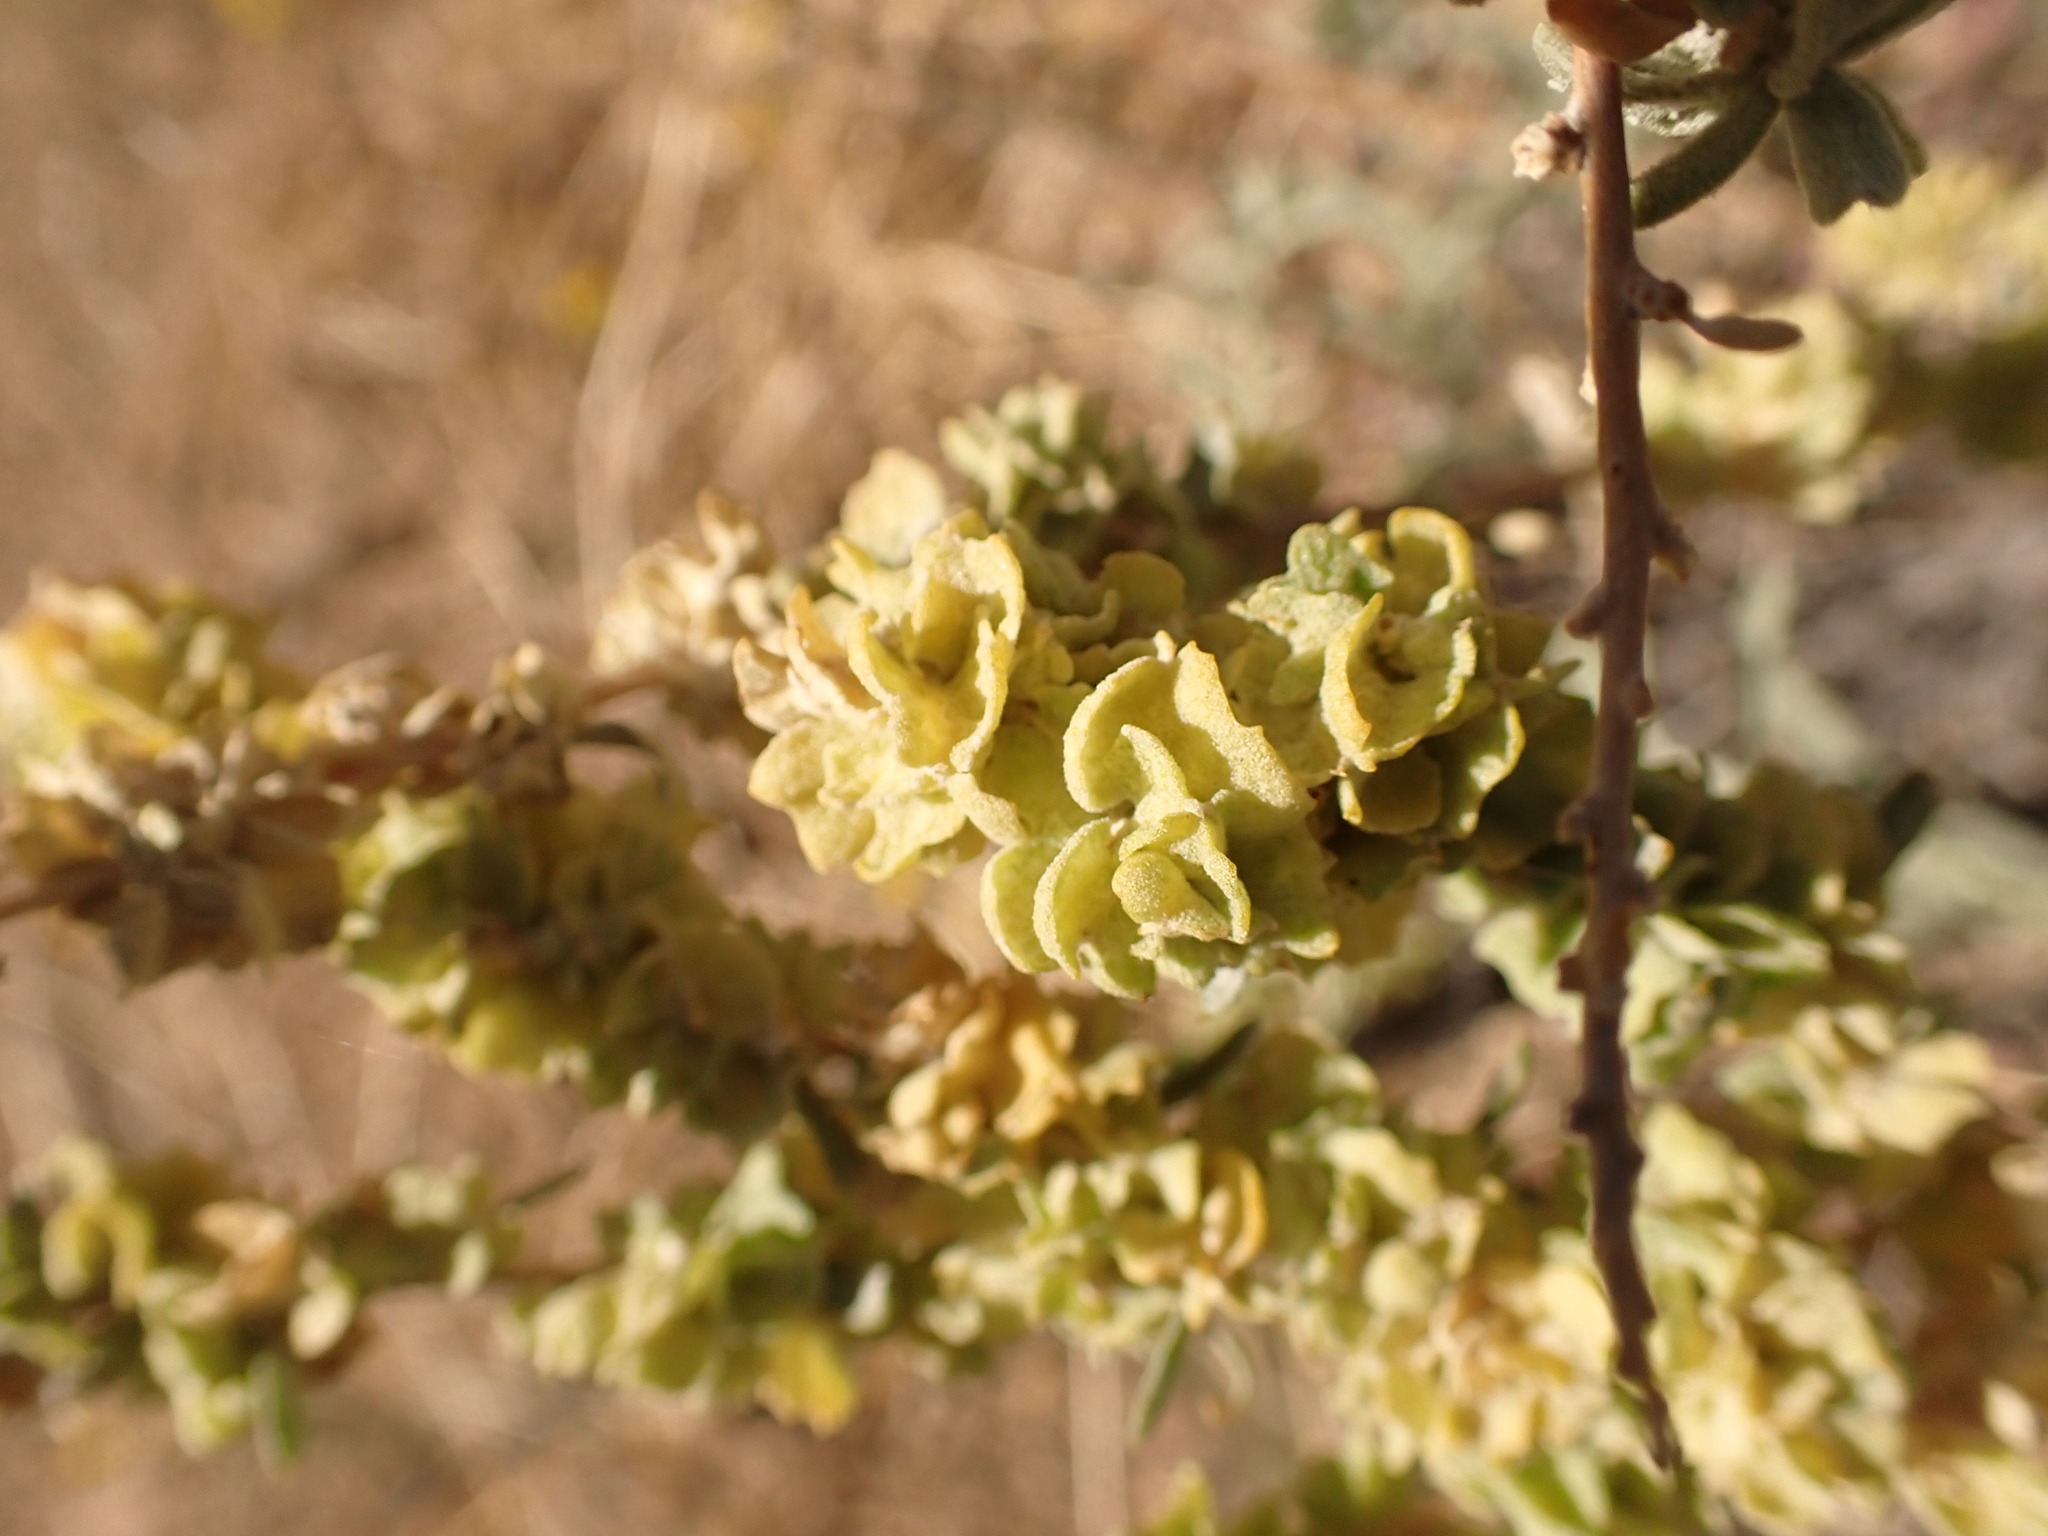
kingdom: Plantae
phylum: Tracheophyta
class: Magnoliopsida
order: Caryophyllales
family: Amaranthaceae
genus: Atriplex
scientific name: Atriplex canescens
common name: Four-wing saltbush
